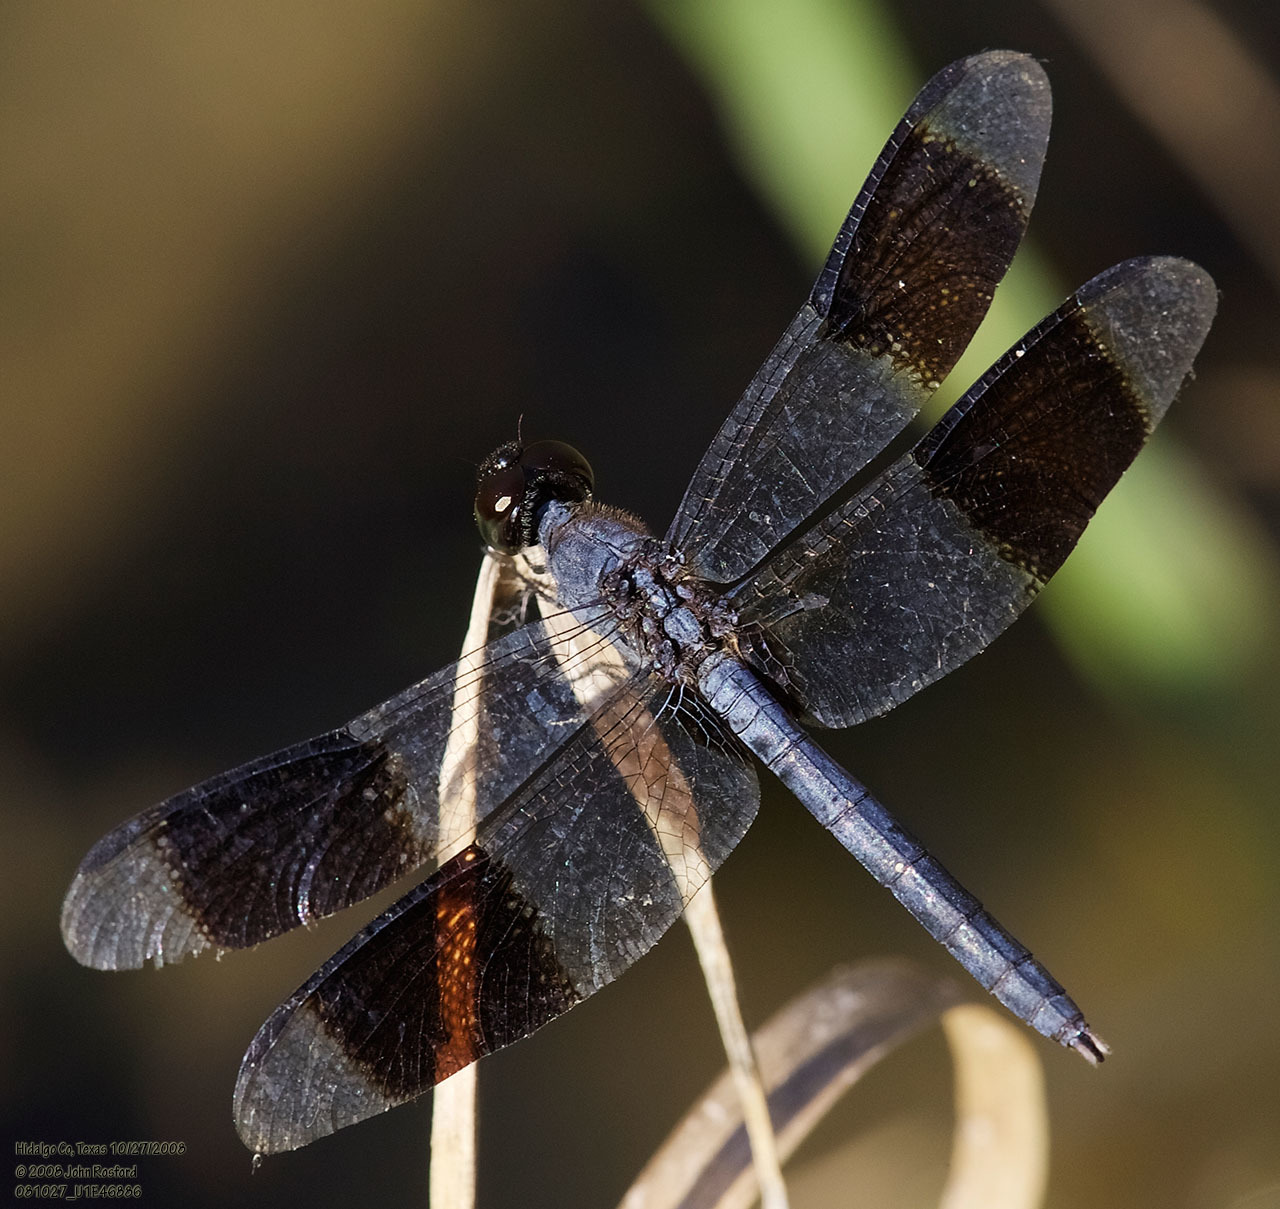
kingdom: Animalia
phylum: Arthropoda
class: Insecta
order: Odonata
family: Libellulidae
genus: Erythrodiplax
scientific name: Erythrodiplax umbrata
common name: Band-winged dragonlet
